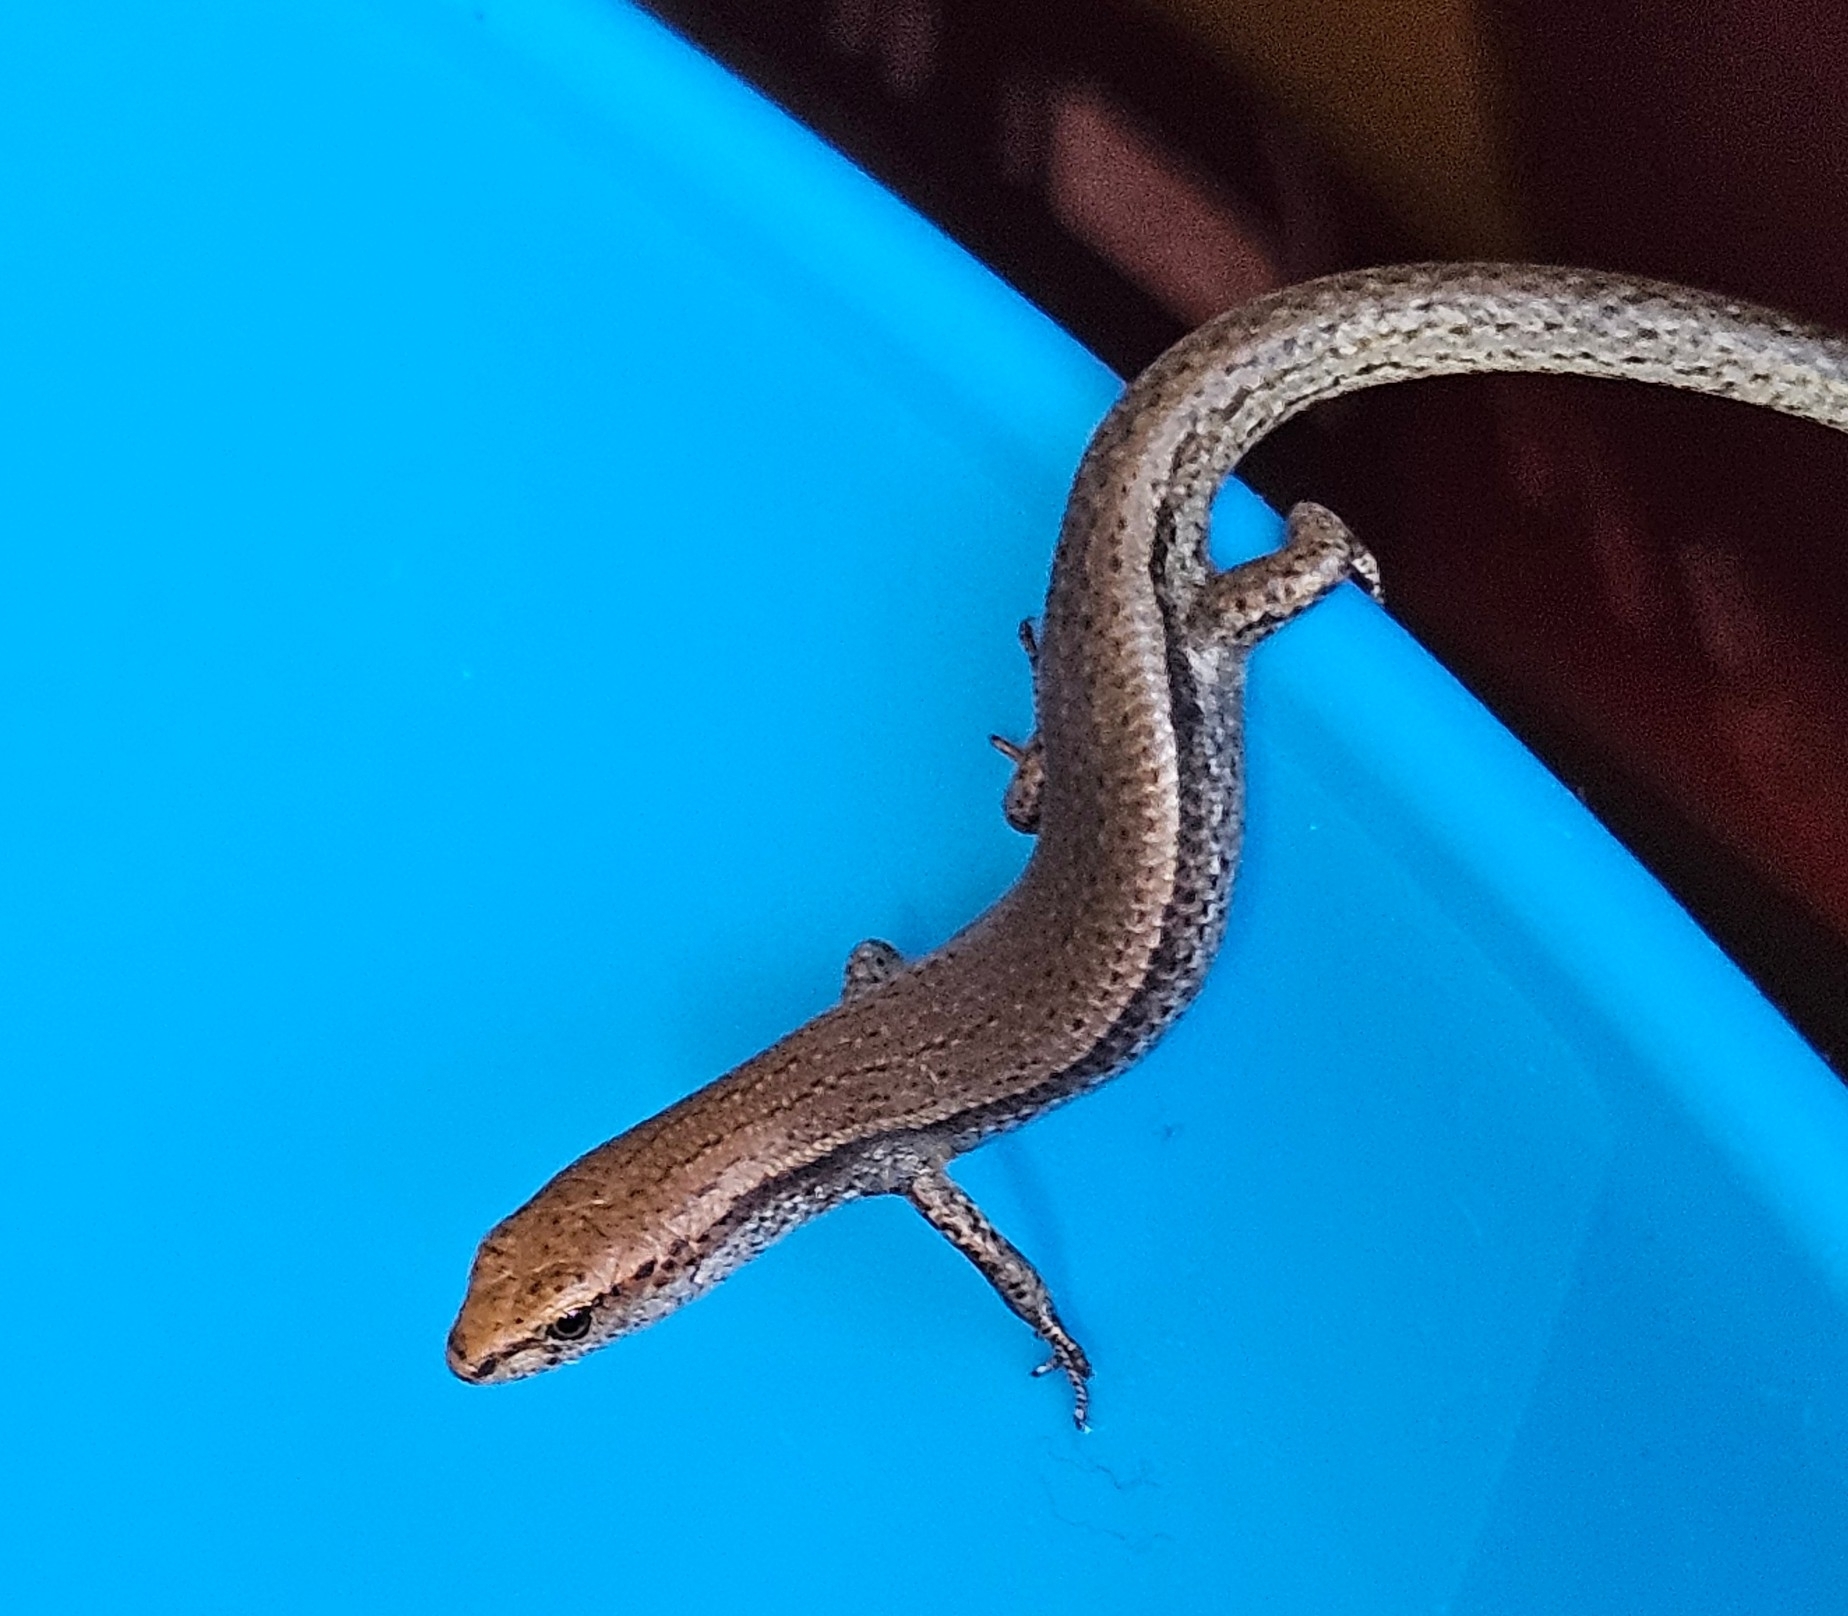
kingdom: Animalia
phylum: Chordata
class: Squamata
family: Scincidae
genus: Lampropholis
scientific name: Lampropholis delicata
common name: Plague skink
